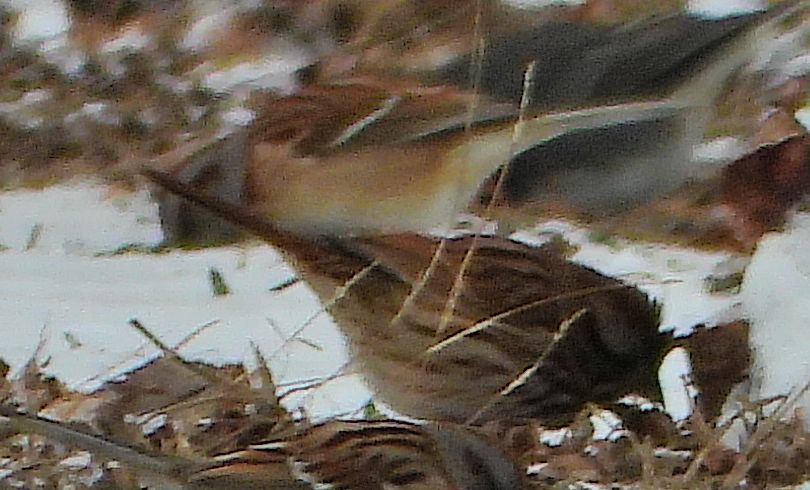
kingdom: Animalia
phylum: Chordata
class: Aves
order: Passeriformes
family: Passerellidae
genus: Melospiza
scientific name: Melospiza melodia
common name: Song sparrow
